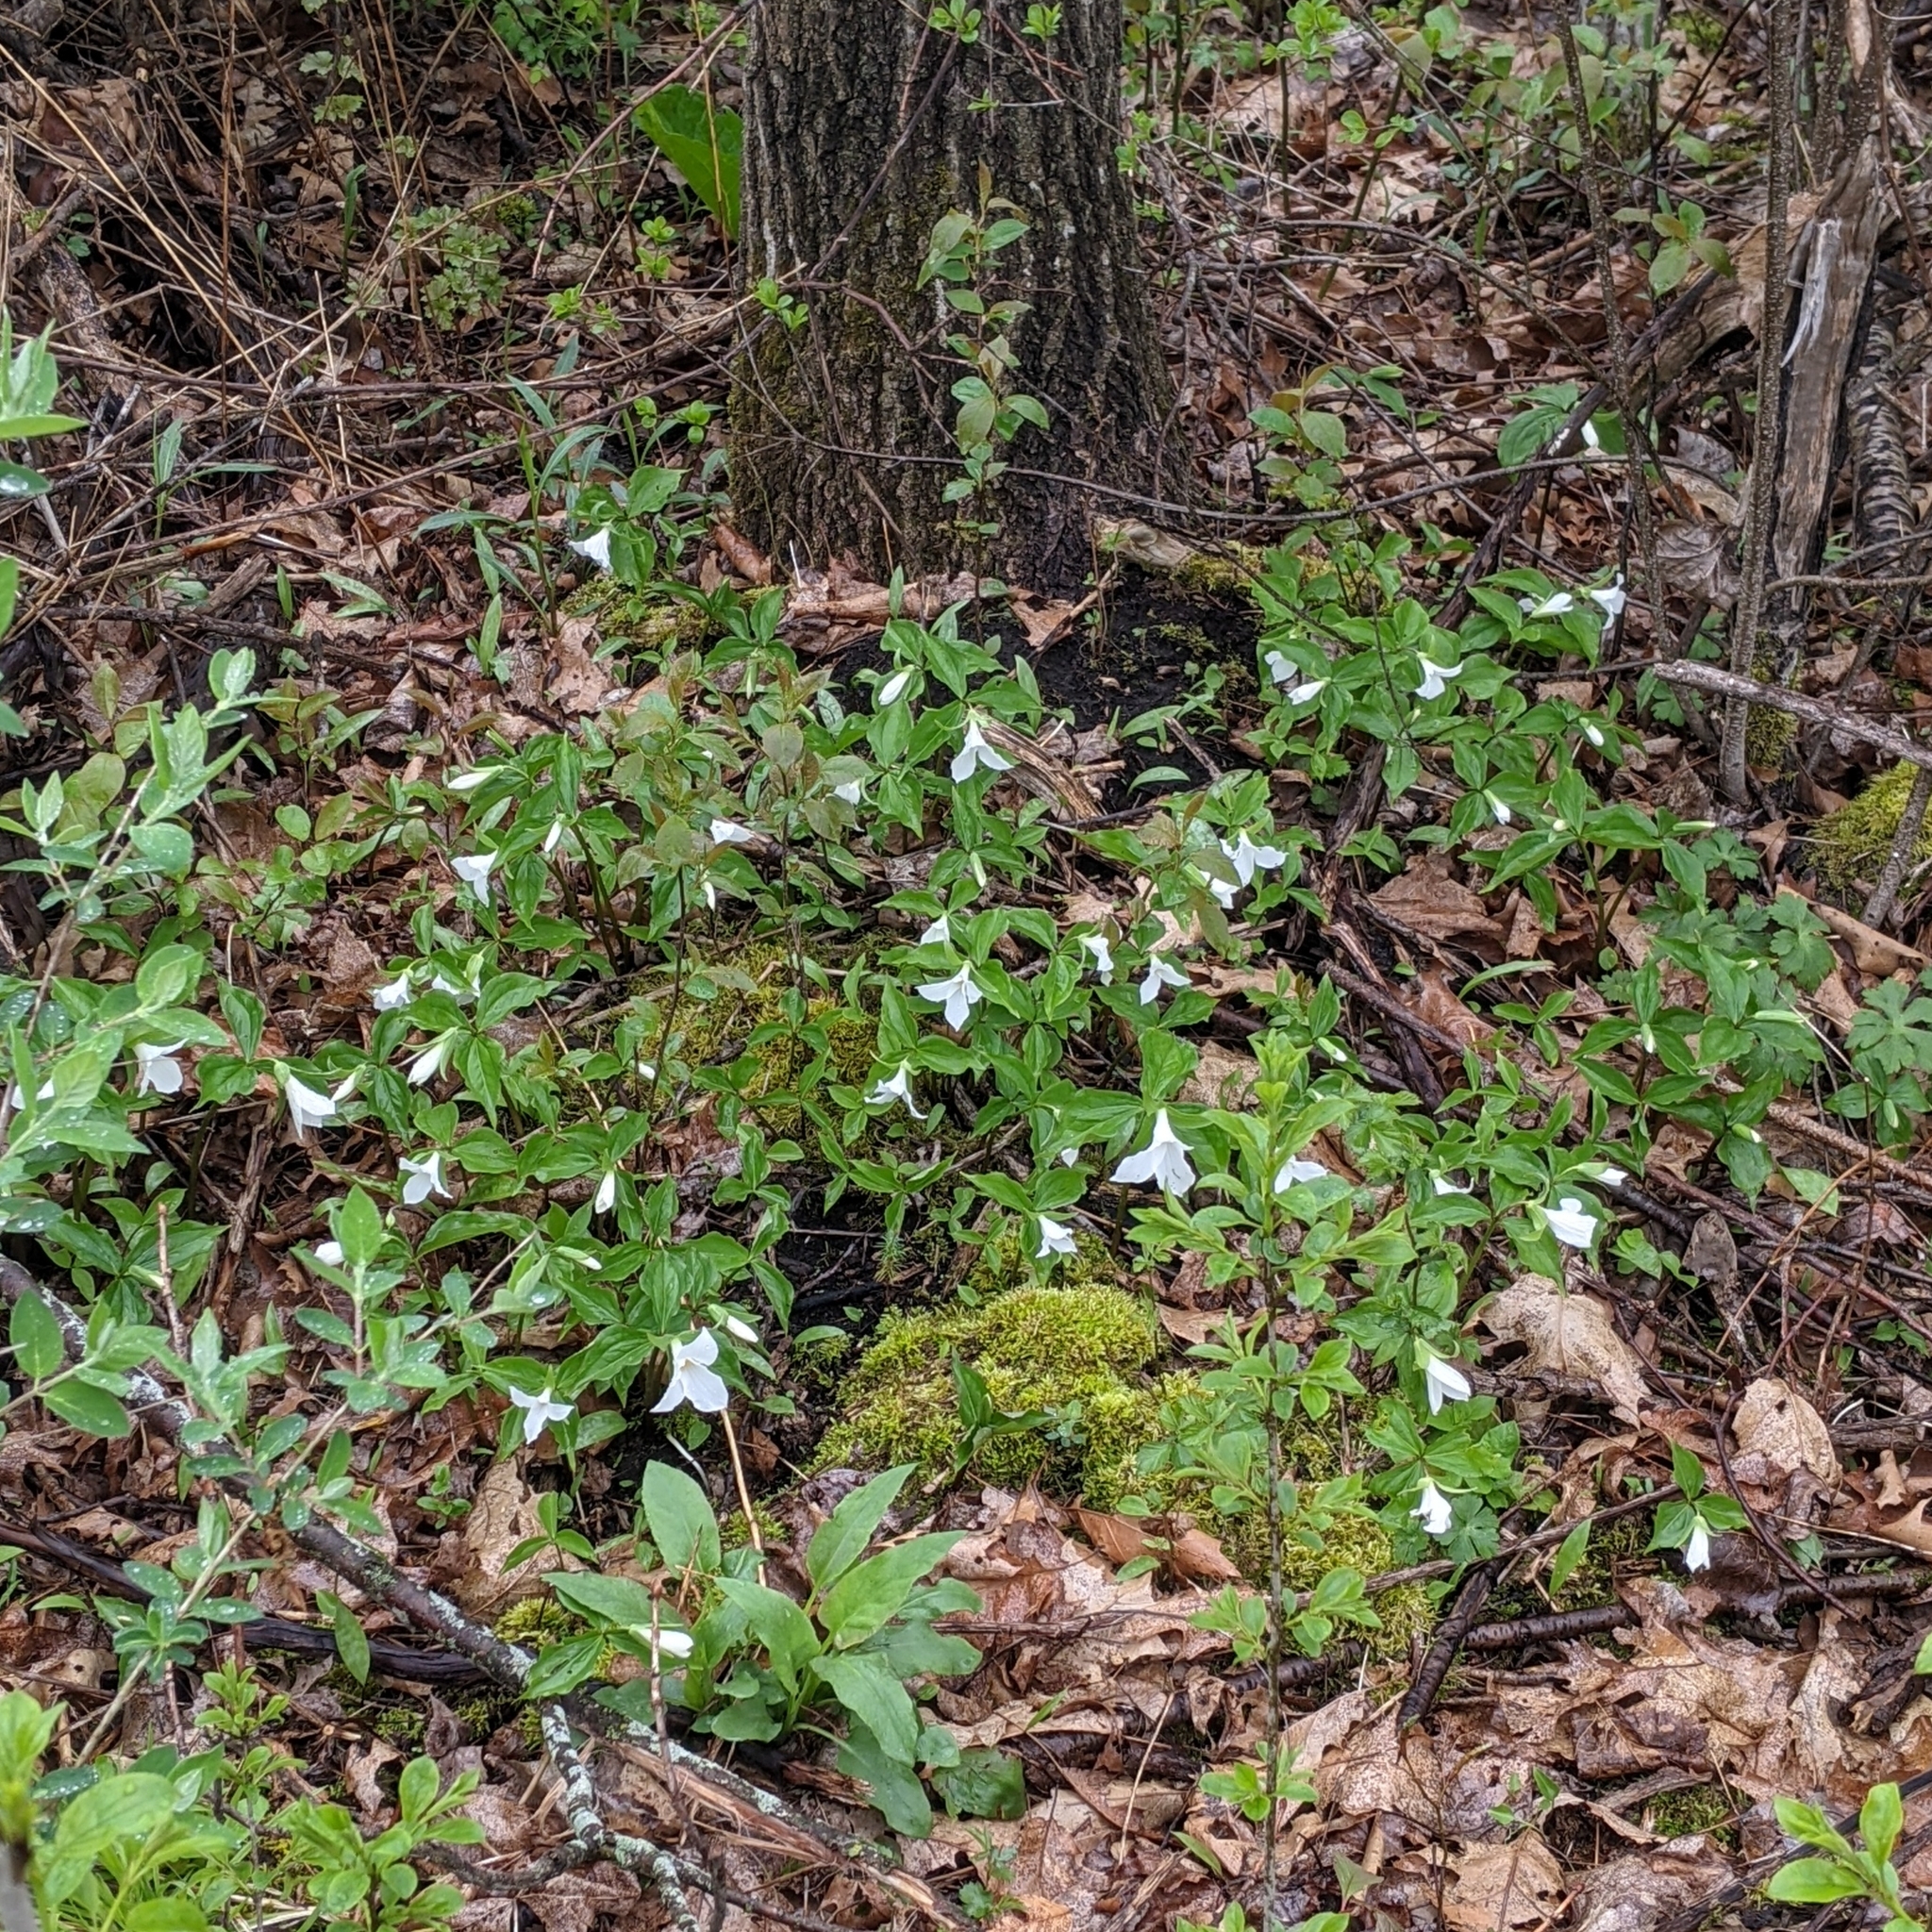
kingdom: Plantae
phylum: Tracheophyta
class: Liliopsida
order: Liliales
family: Melanthiaceae
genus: Trillium
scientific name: Trillium grandiflorum
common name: Great white trillium
